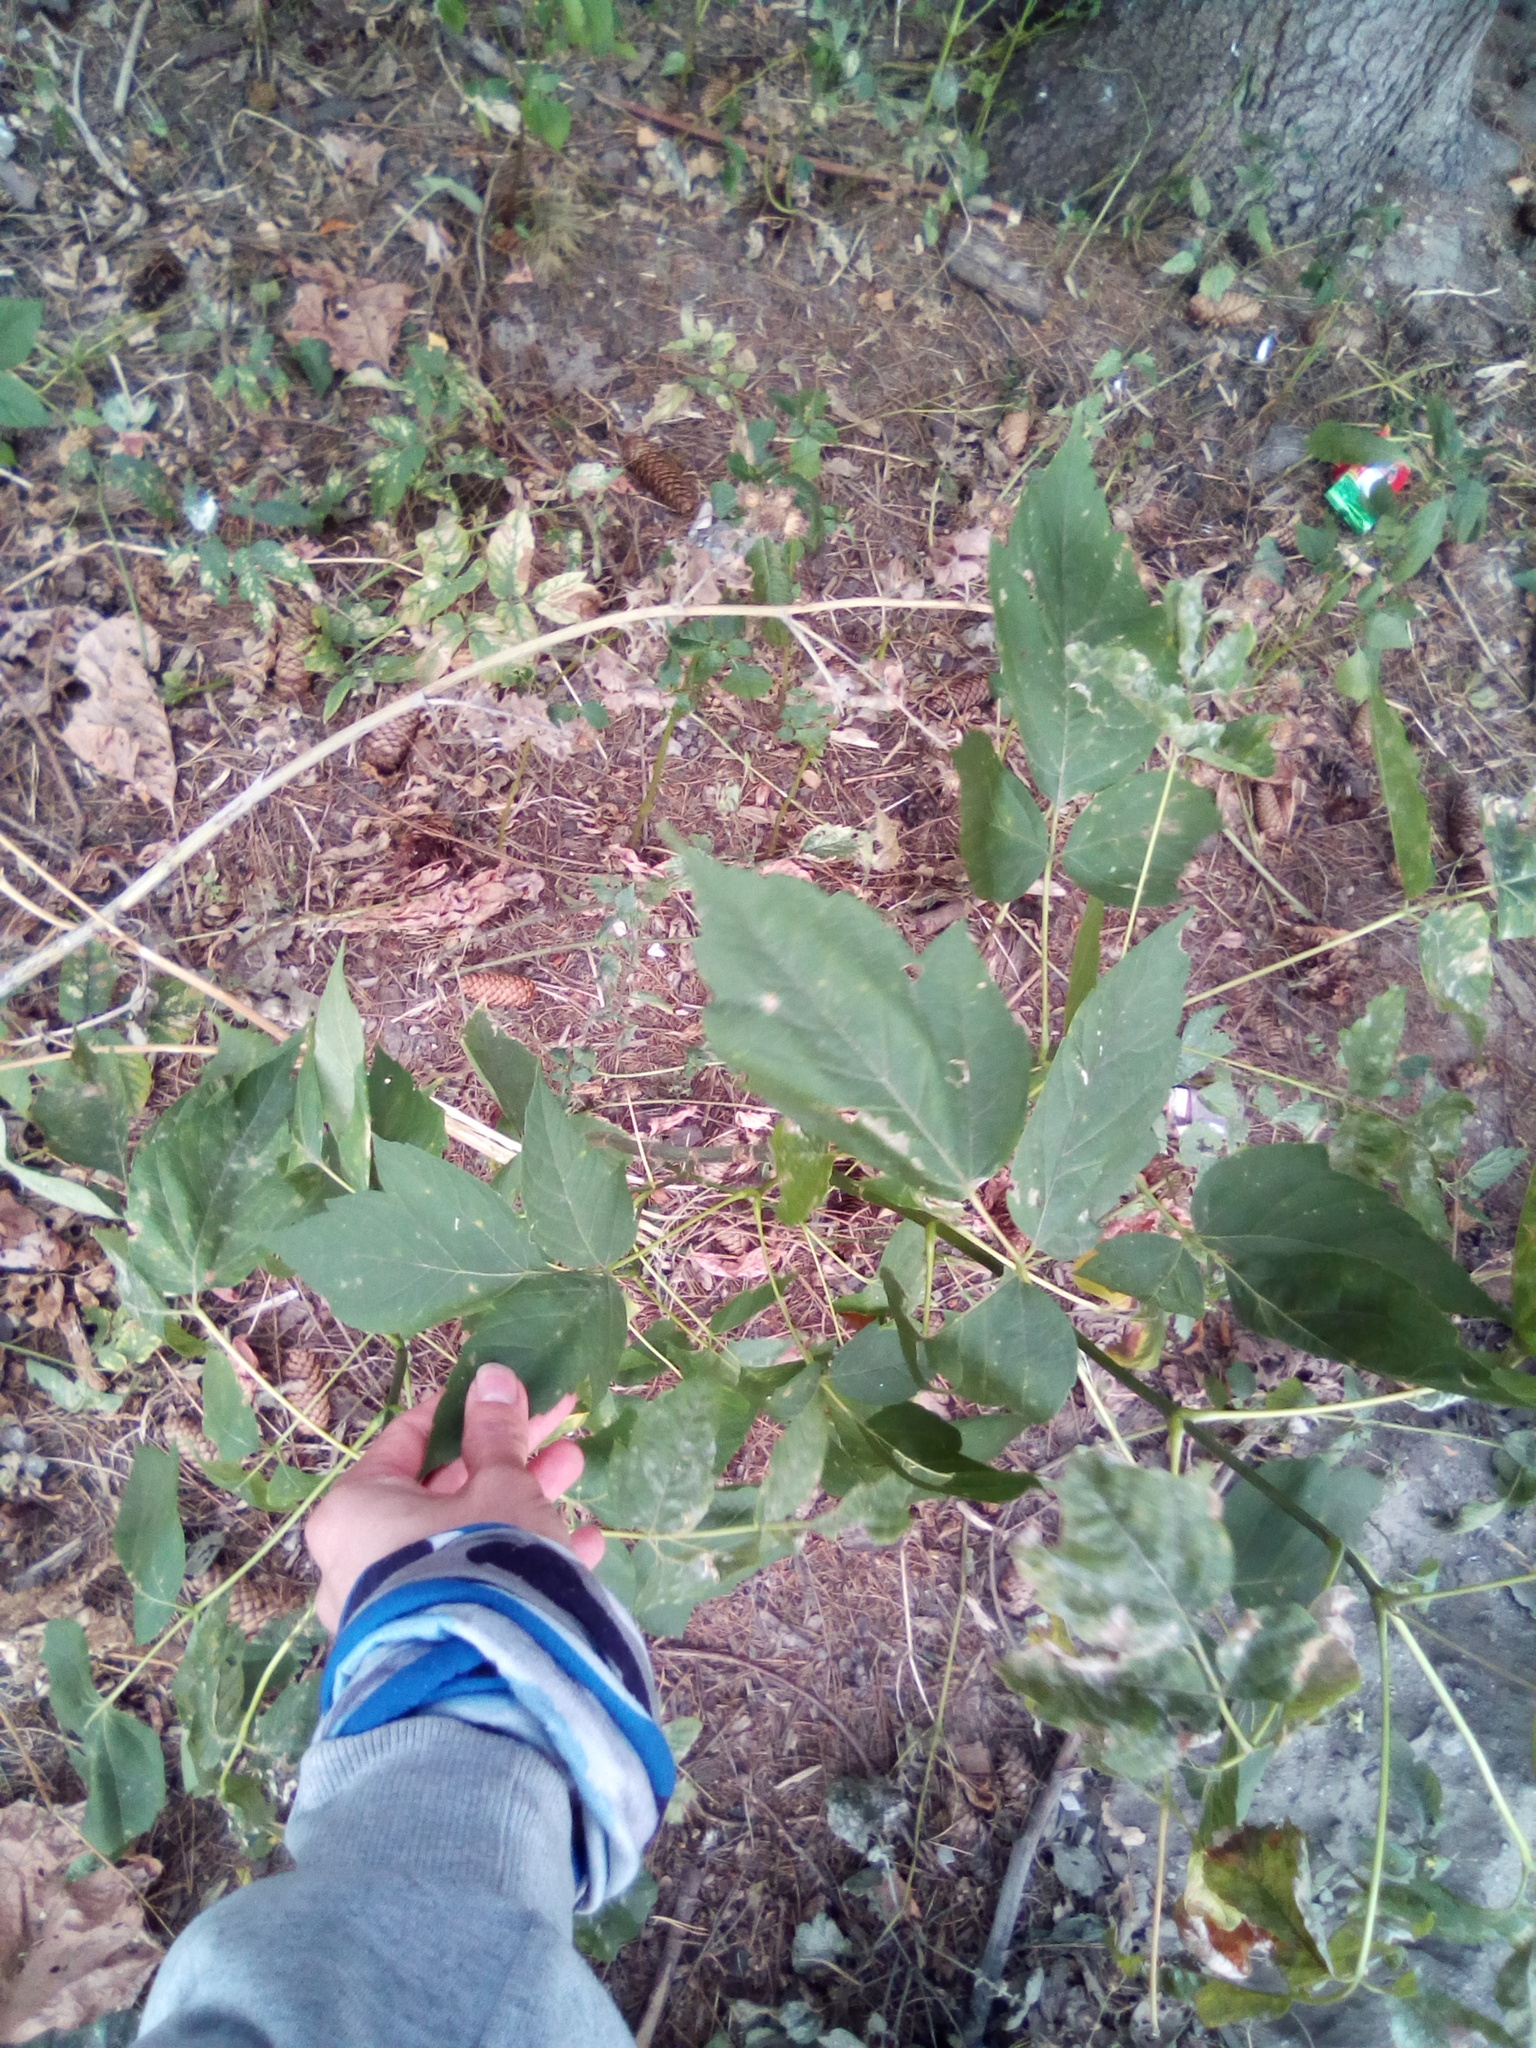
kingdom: Plantae
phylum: Tracheophyta
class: Magnoliopsida
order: Sapindales
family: Sapindaceae
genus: Acer
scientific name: Acer negundo
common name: Ashleaf maple
